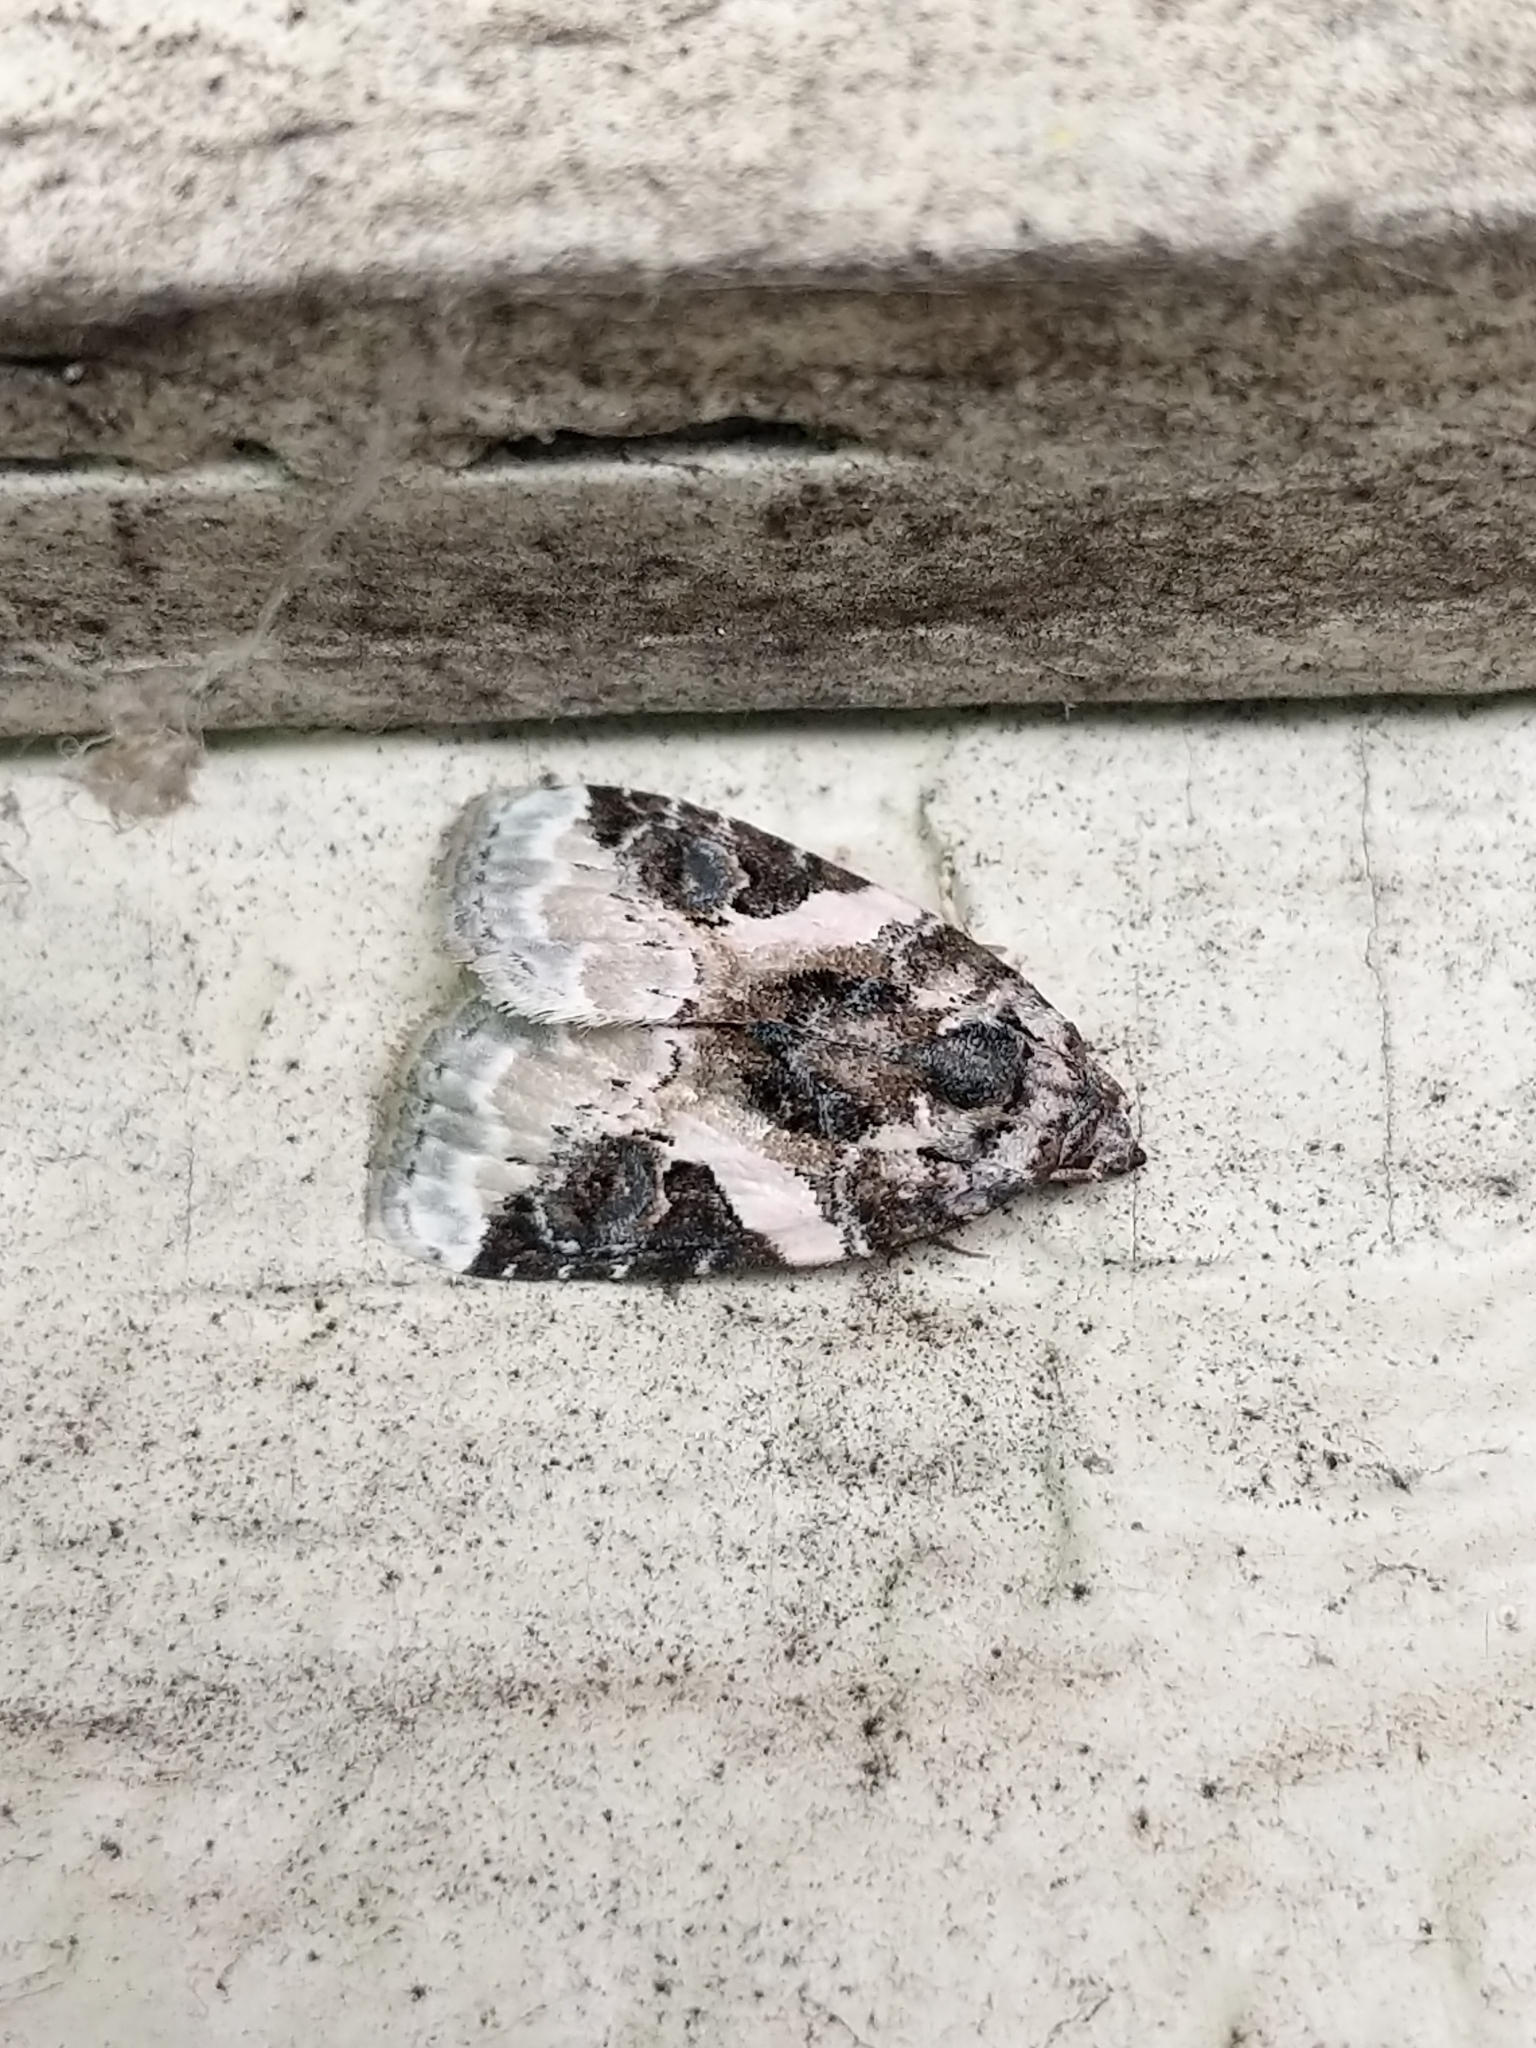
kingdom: Animalia
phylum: Arthropoda
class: Insecta
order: Lepidoptera
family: Noctuidae
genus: Pseudeustrotia
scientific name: Pseudeustrotia carneola
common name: Pink-barred lithacodia moth
